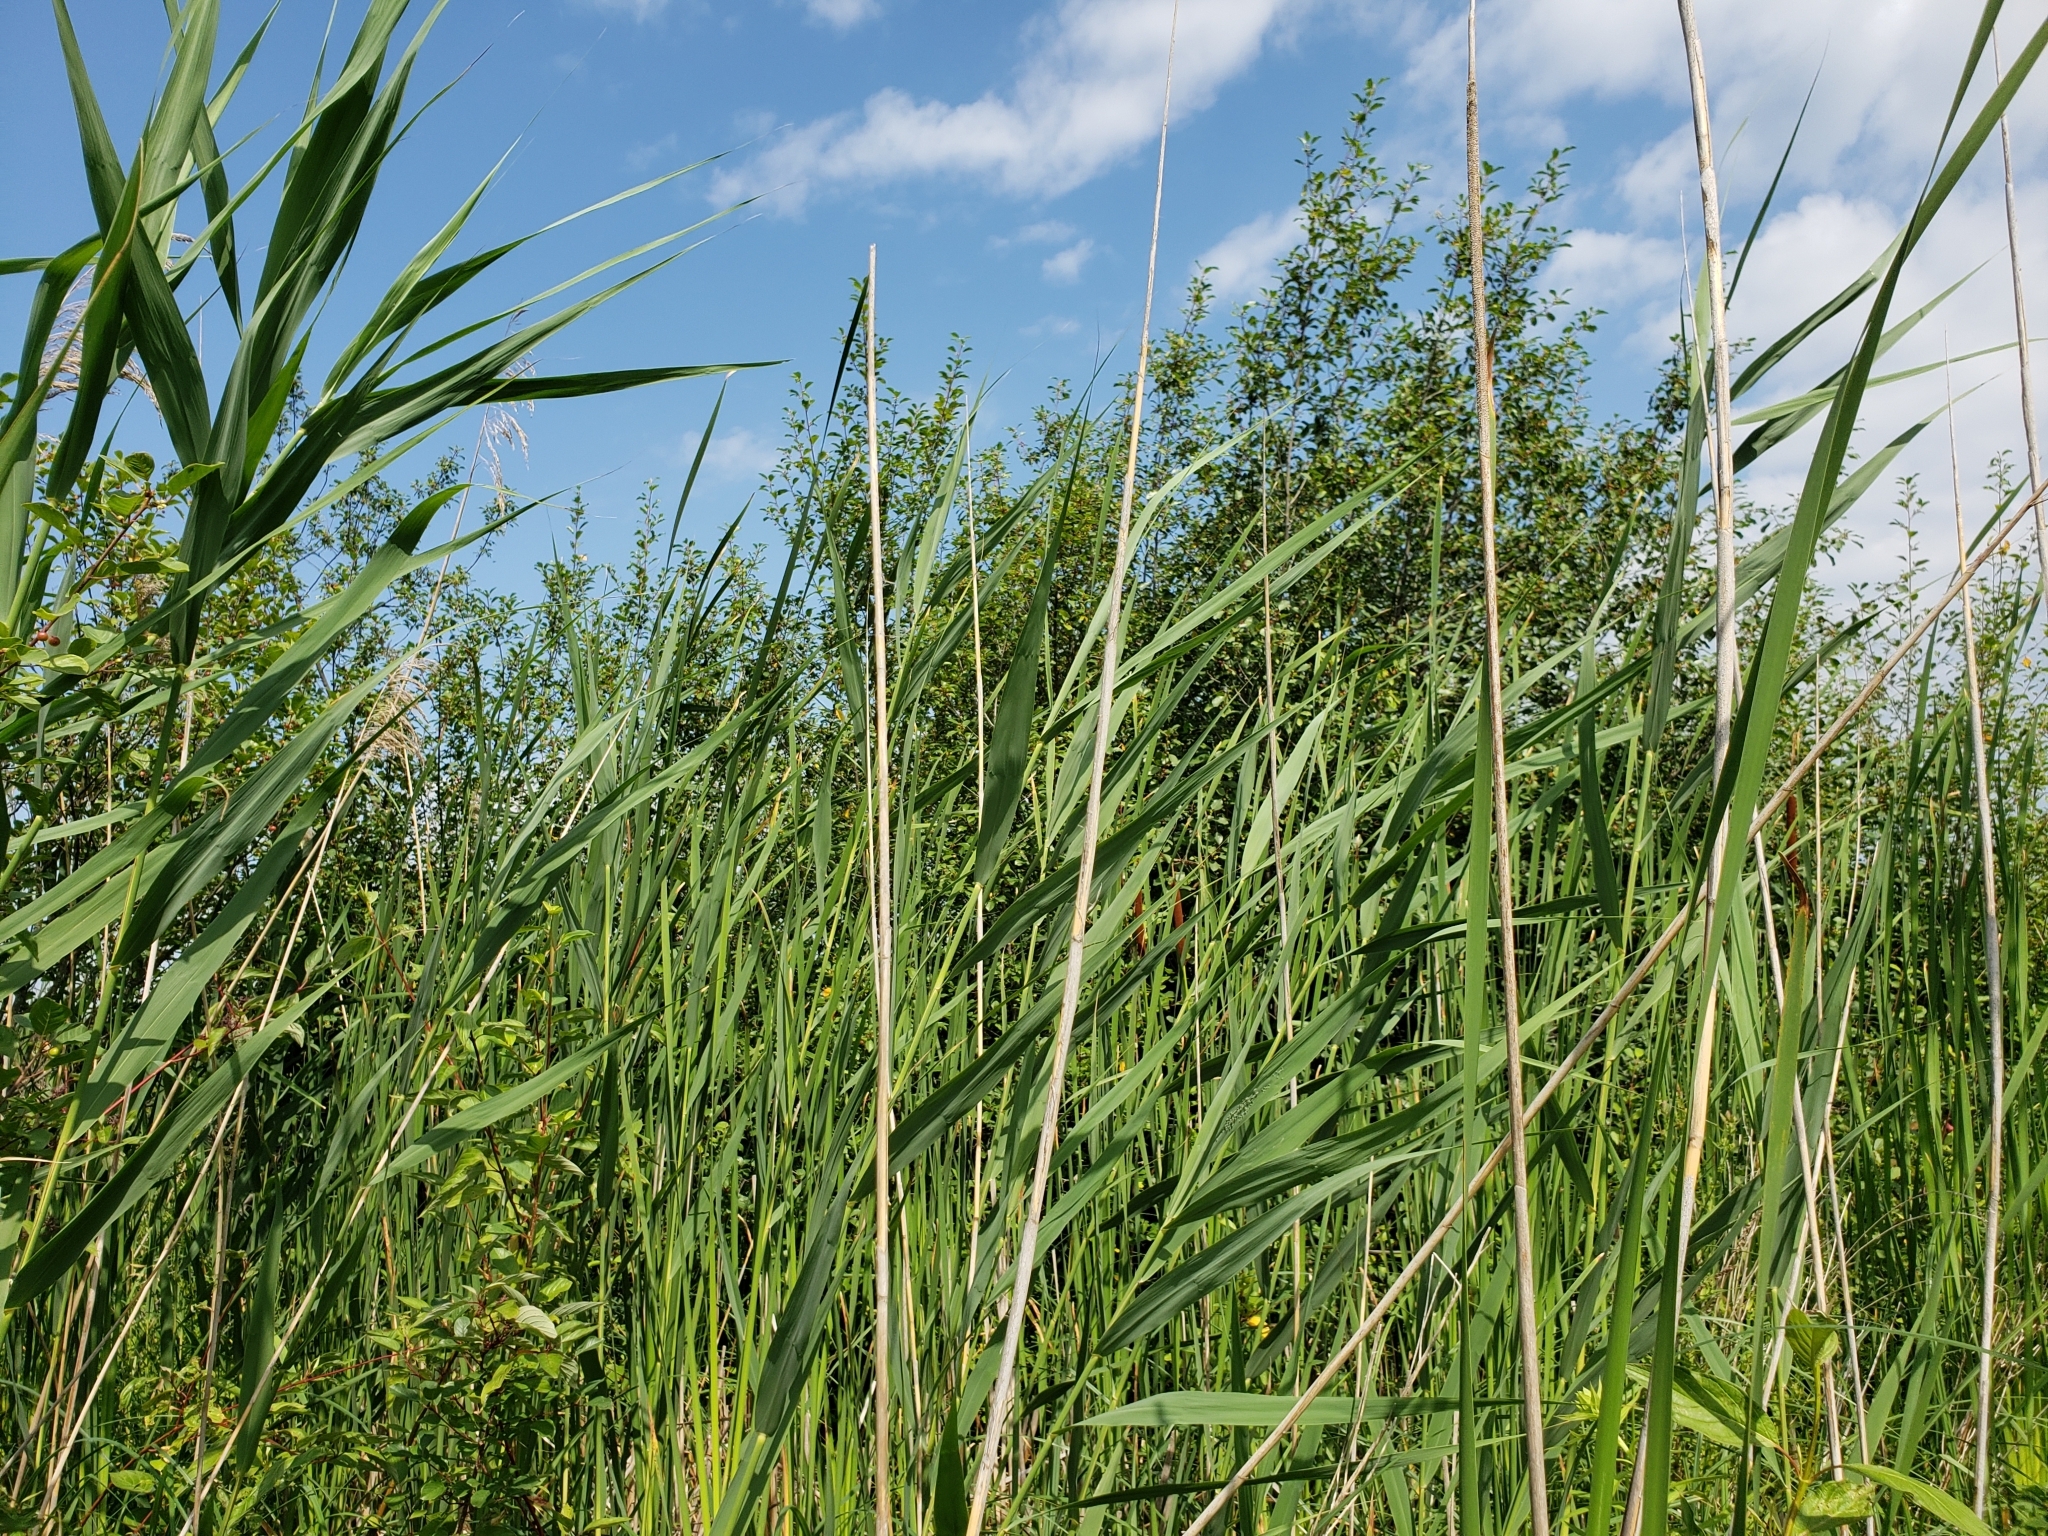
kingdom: Plantae
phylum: Tracheophyta
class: Liliopsida
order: Poales
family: Poaceae
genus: Phragmites
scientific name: Phragmites australis
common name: Common reed
